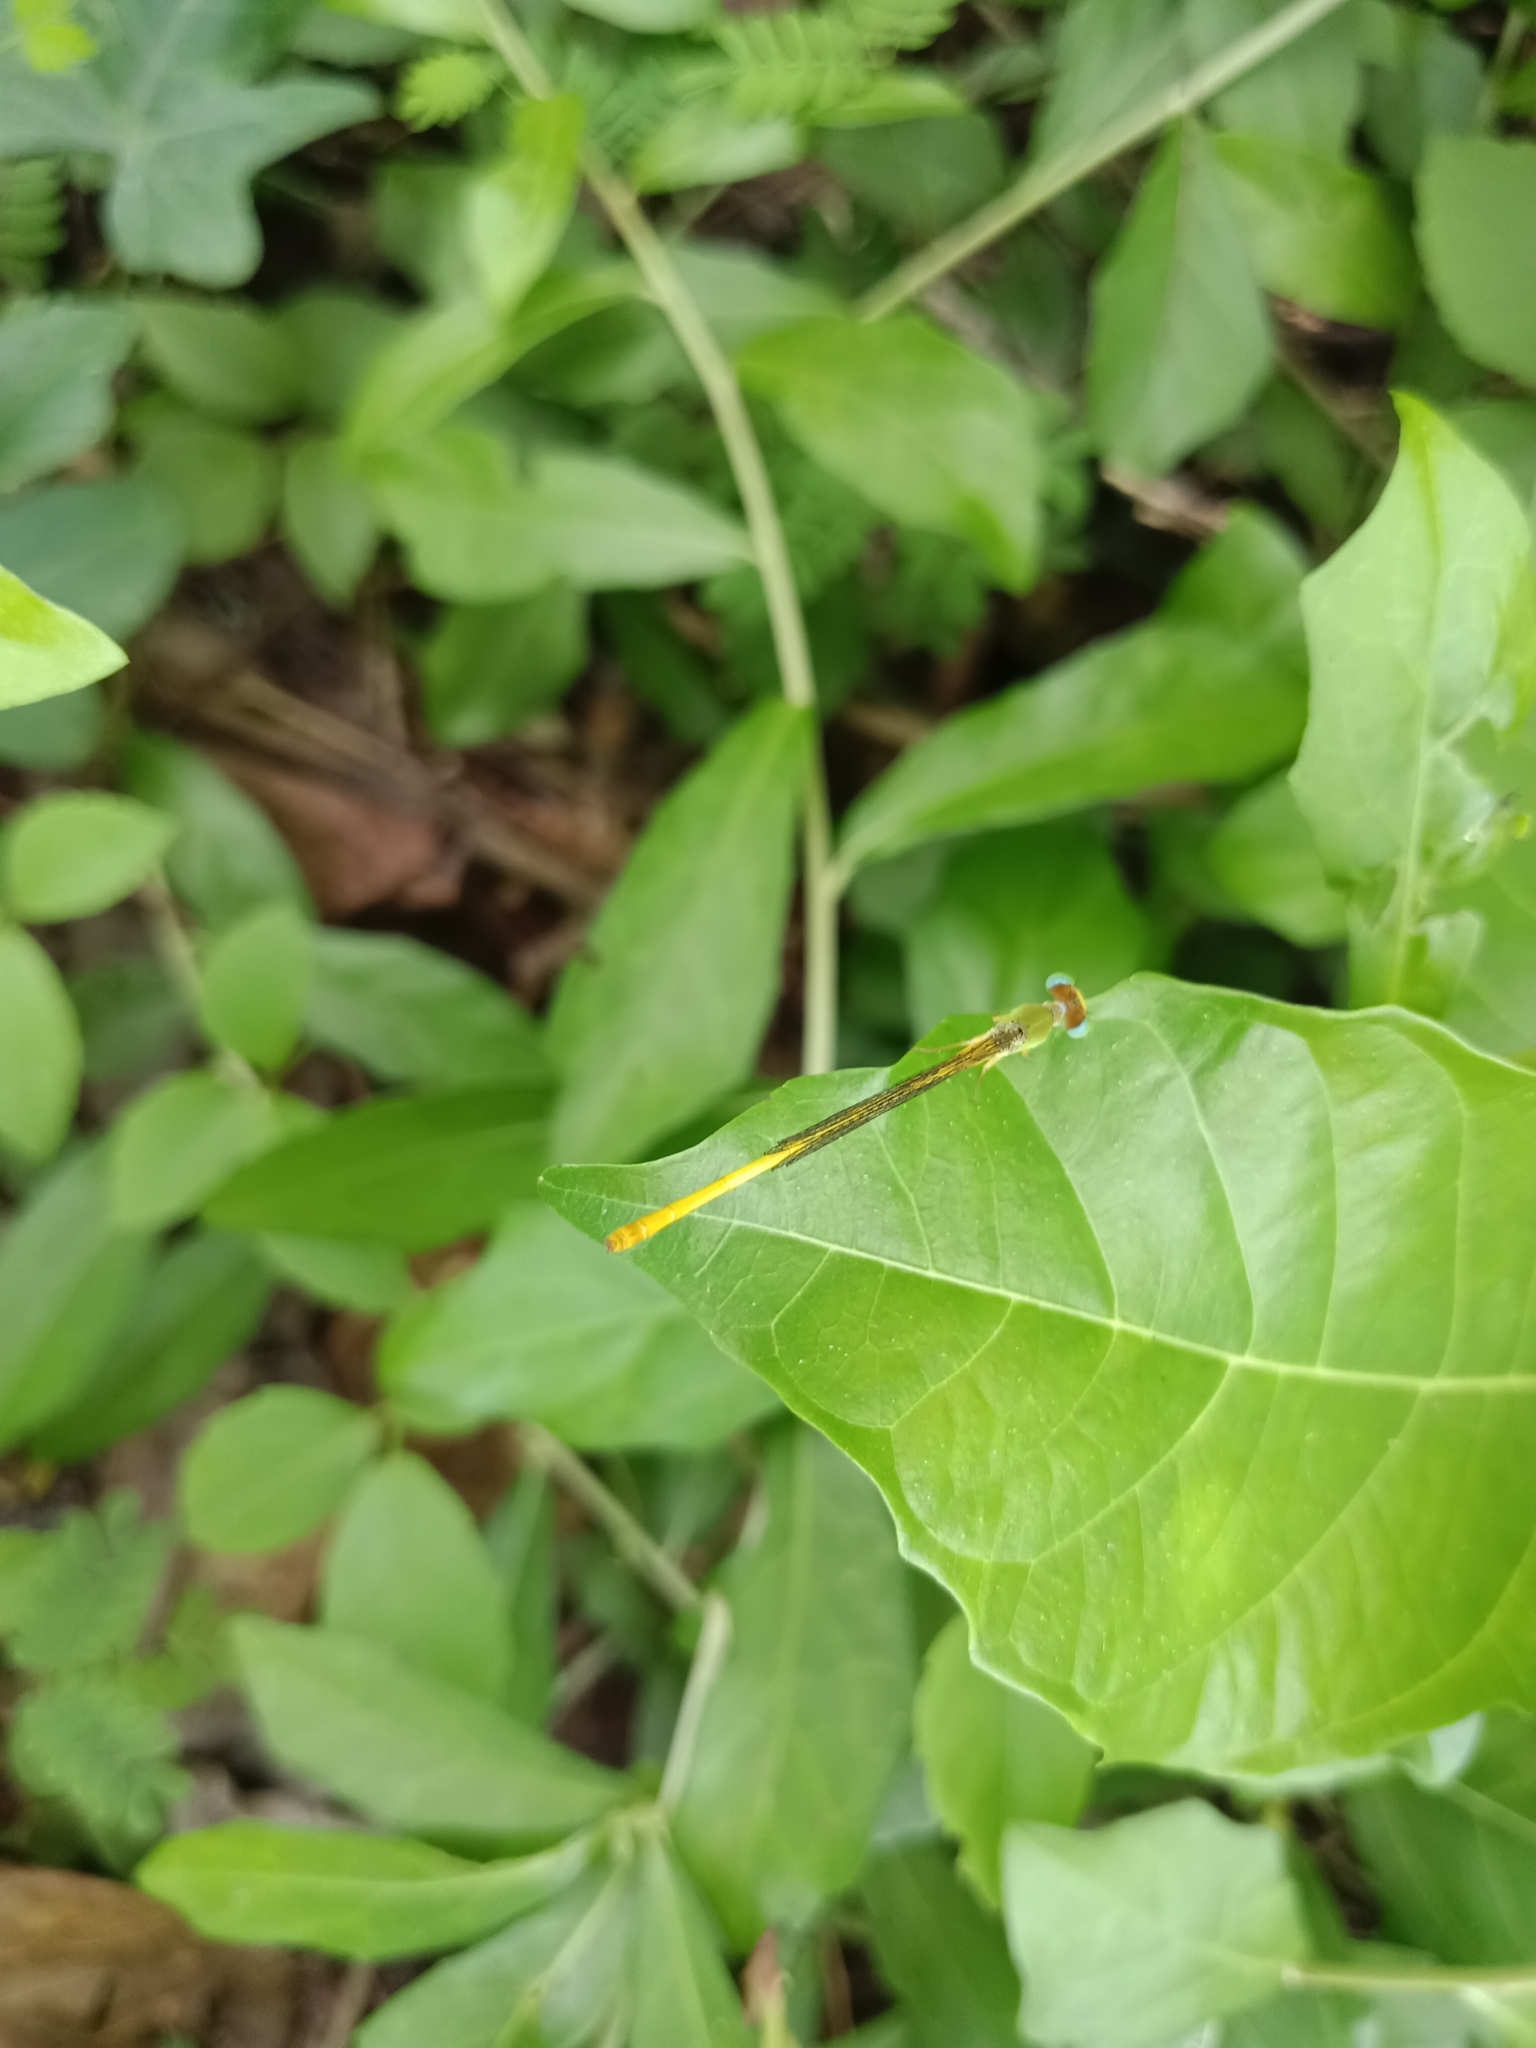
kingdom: Animalia
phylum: Arthropoda
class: Insecta
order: Odonata
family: Coenagrionidae
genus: Ceriagrion
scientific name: Ceriagrion coromandelianum
